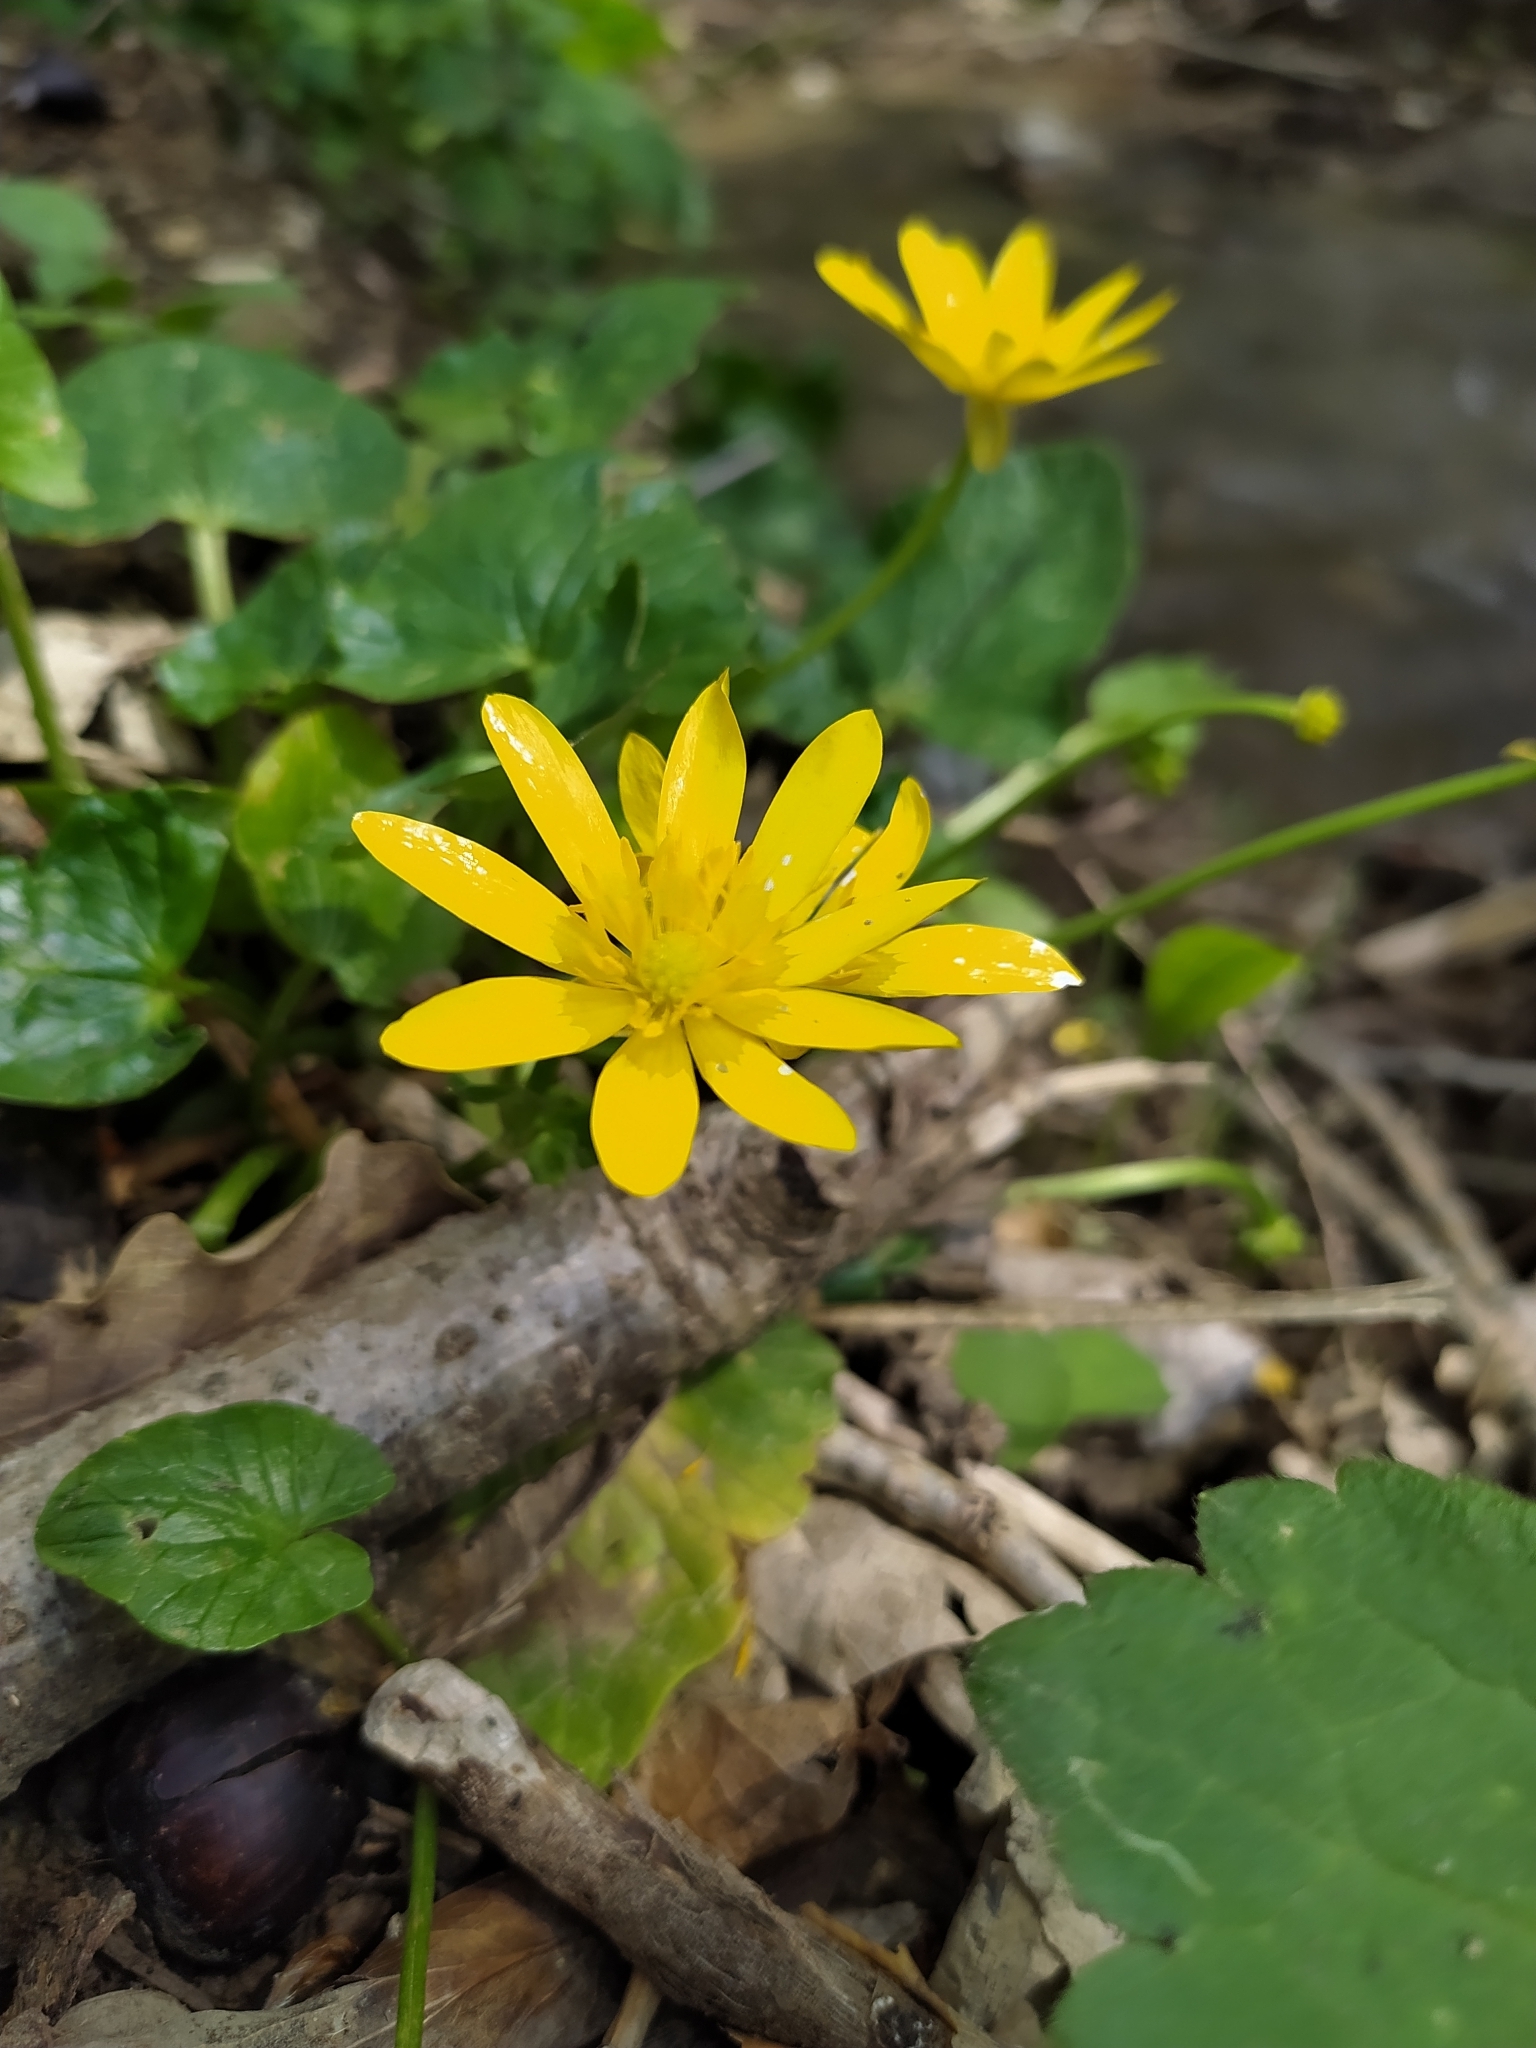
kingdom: Plantae
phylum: Tracheophyta
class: Magnoliopsida
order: Ranunculales
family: Ranunculaceae
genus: Ficaria
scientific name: Ficaria verna
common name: Lesser celandine
